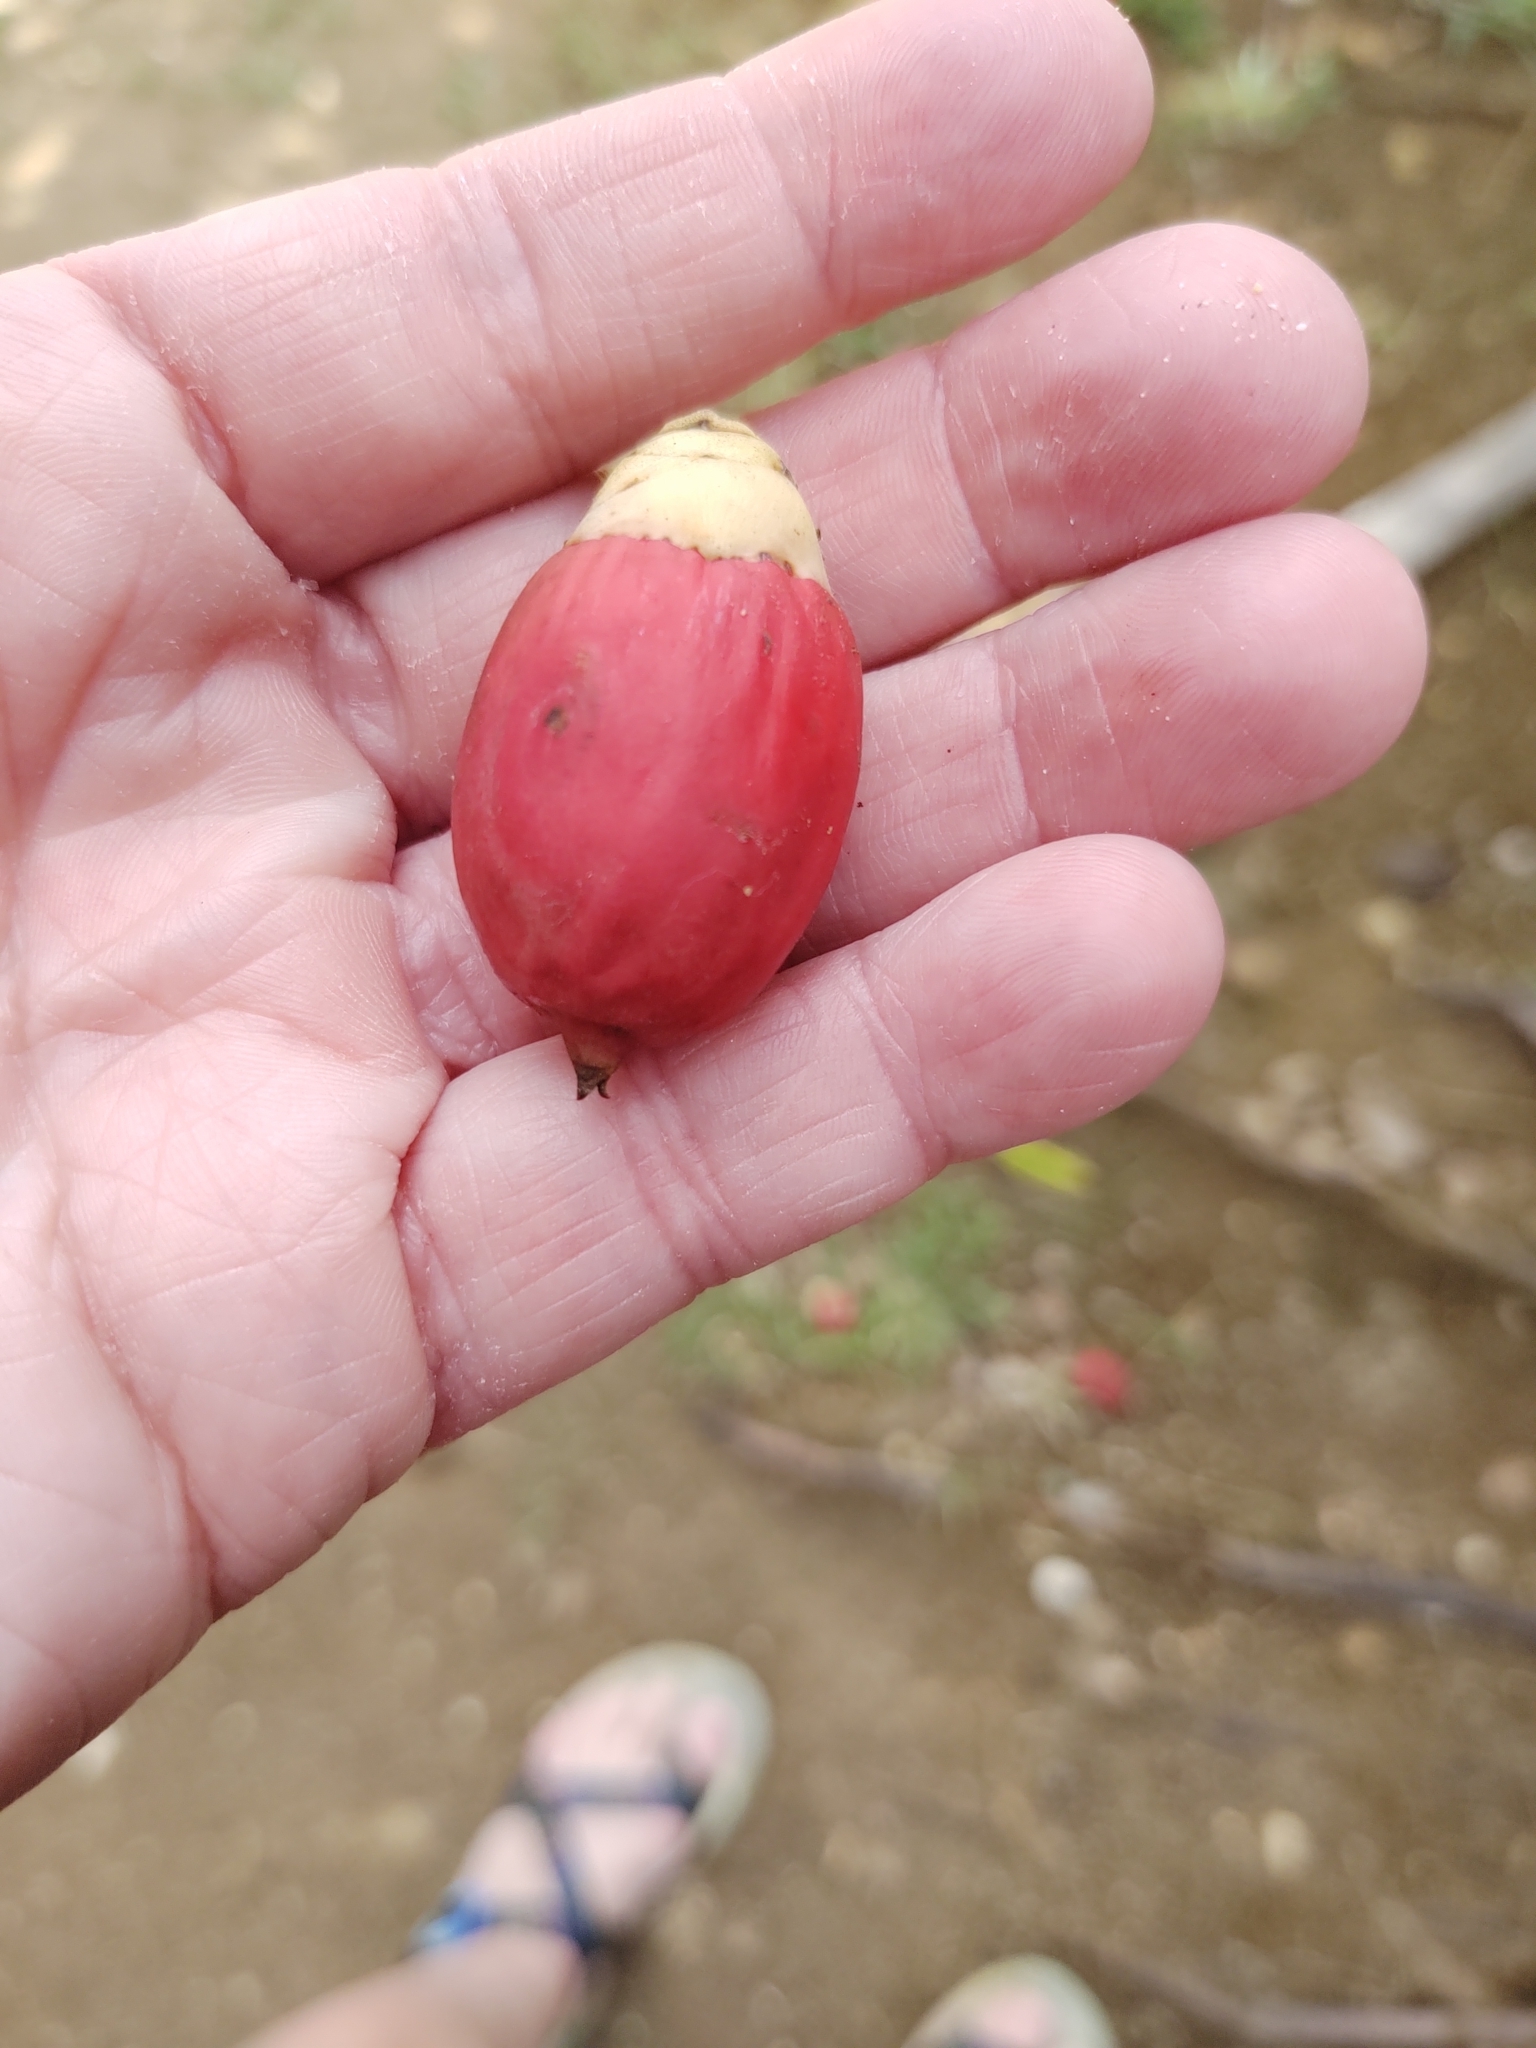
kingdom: Plantae
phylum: Tracheophyta
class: Liliopsida
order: Arecales
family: Arecaceae
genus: Adonidia
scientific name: Adonidia merrillii
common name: Manila palm
